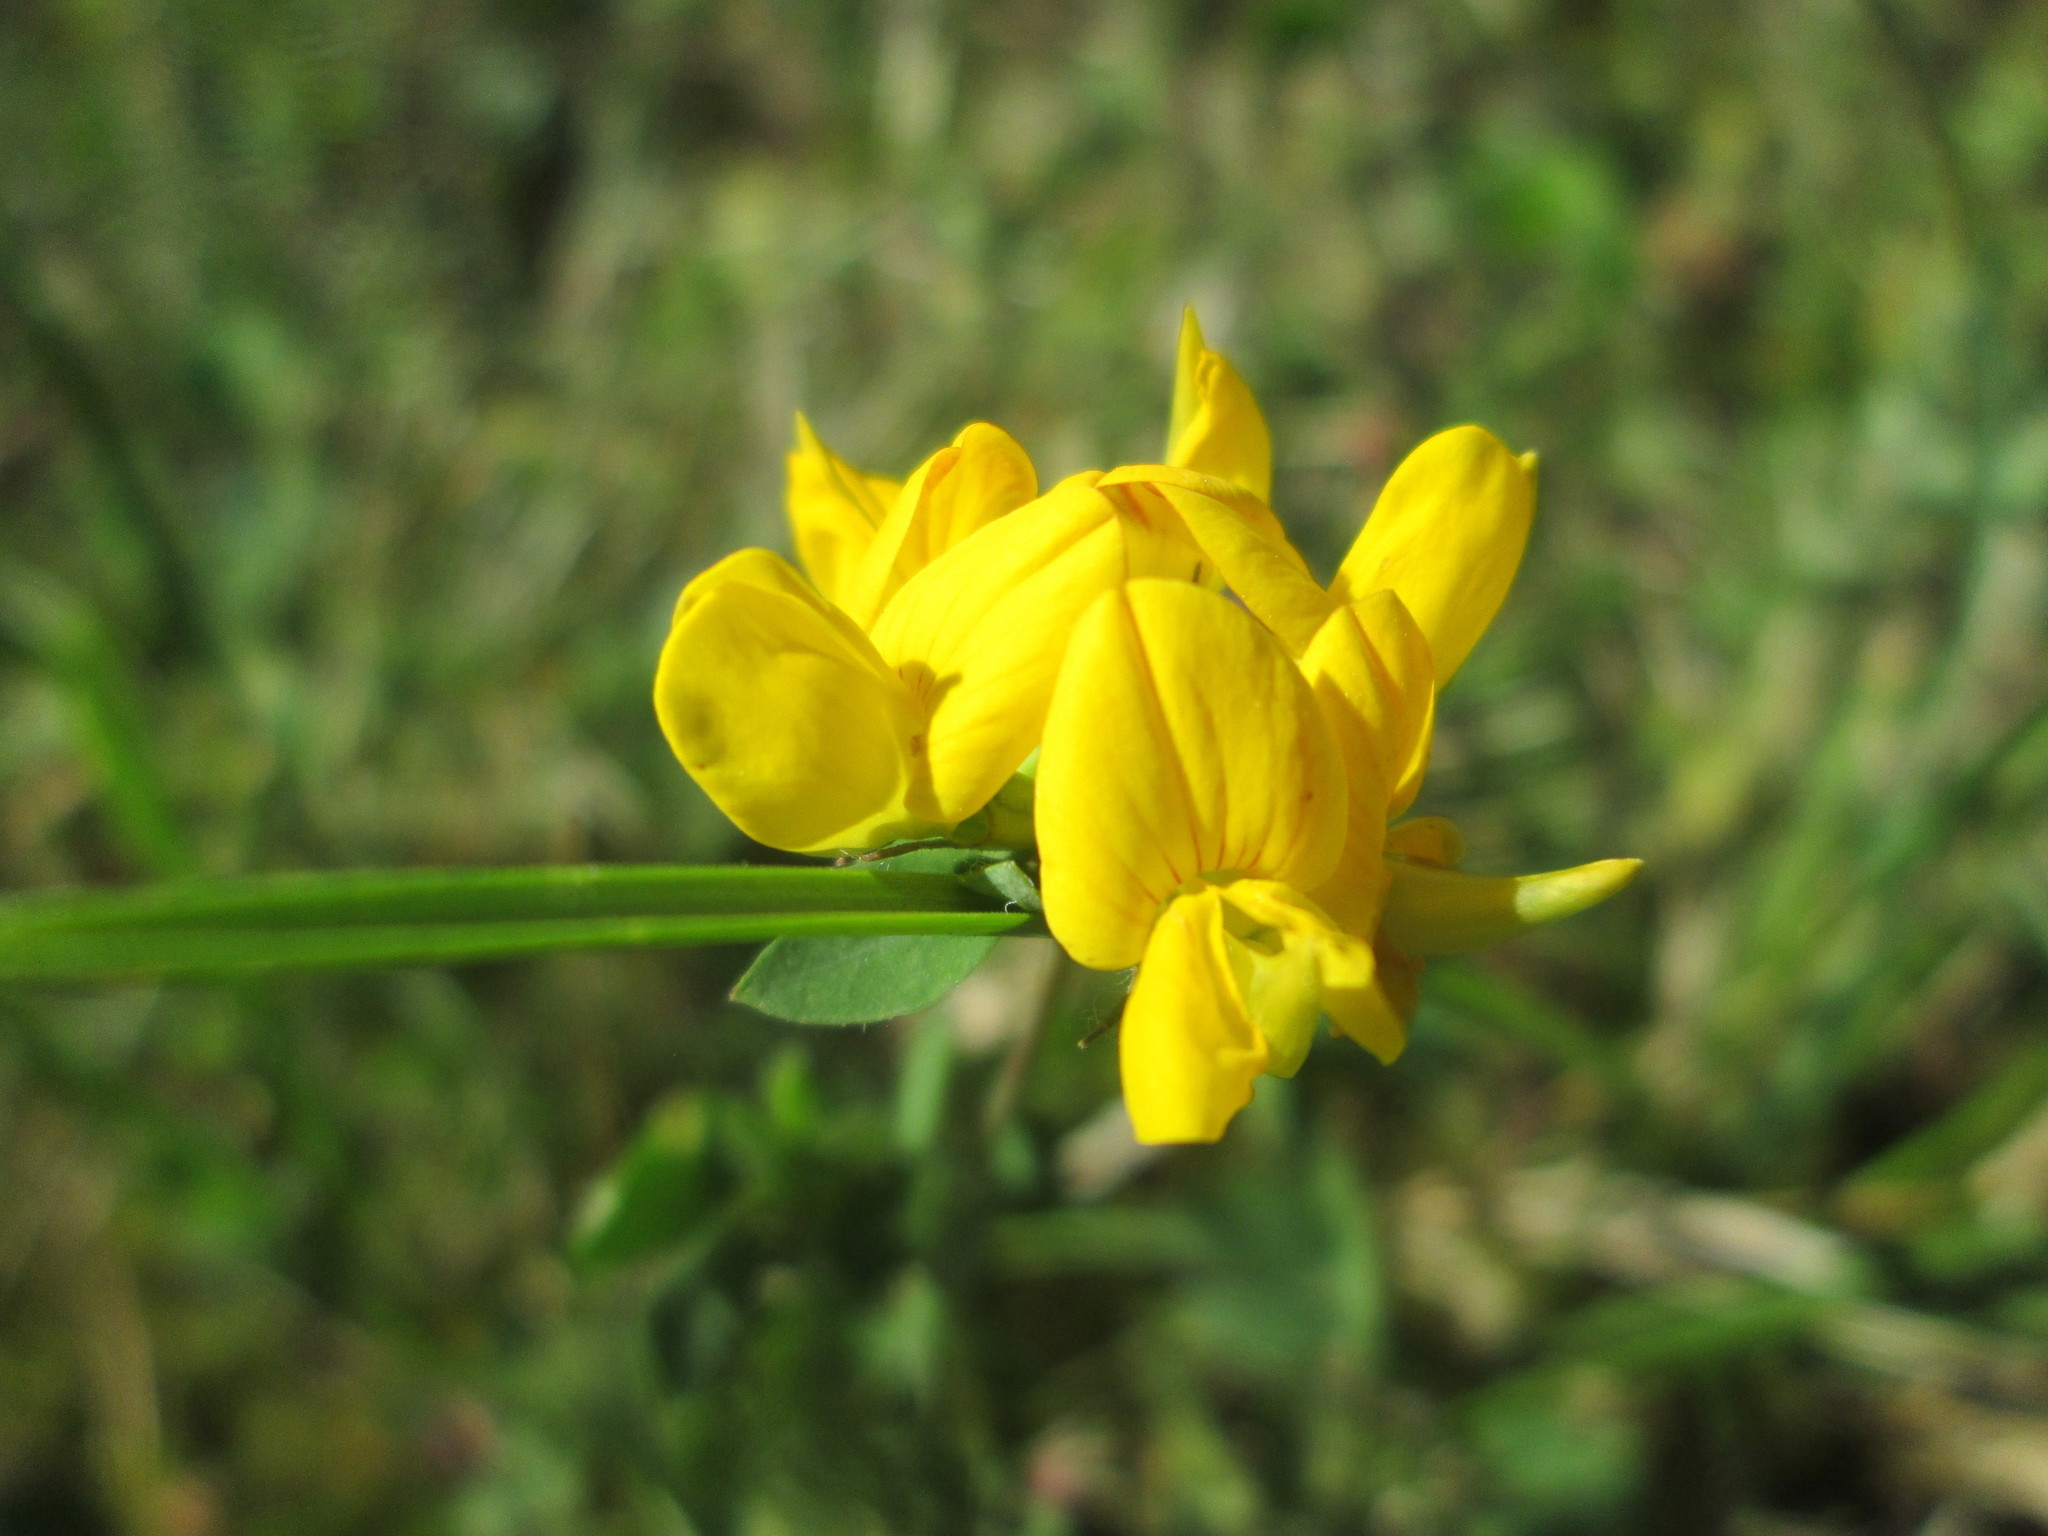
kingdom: Plantae
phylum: Tracheophyta
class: Magnoliopsida
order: Fabales
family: Fabaceae
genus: Lotus
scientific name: Lotus corniculatus
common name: Common bird's-foot-trefoil
